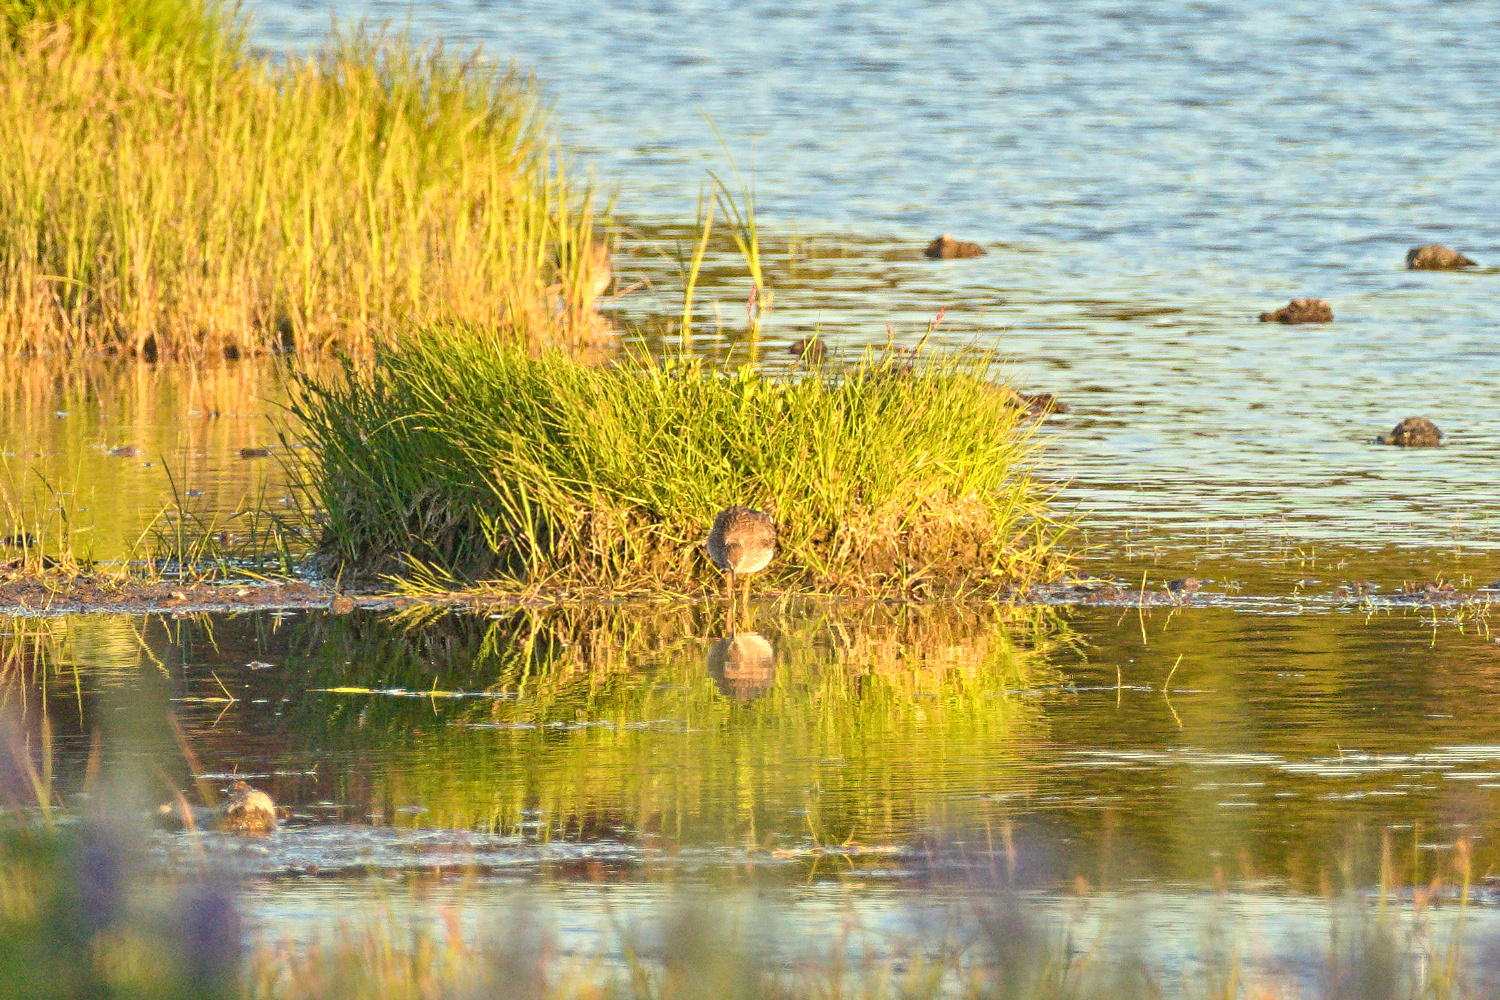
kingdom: Animalia
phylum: Chordata
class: Aves
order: Charadriiformes
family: Scolopacidae
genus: Tringa
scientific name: Tringa totanus
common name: Common redshank
